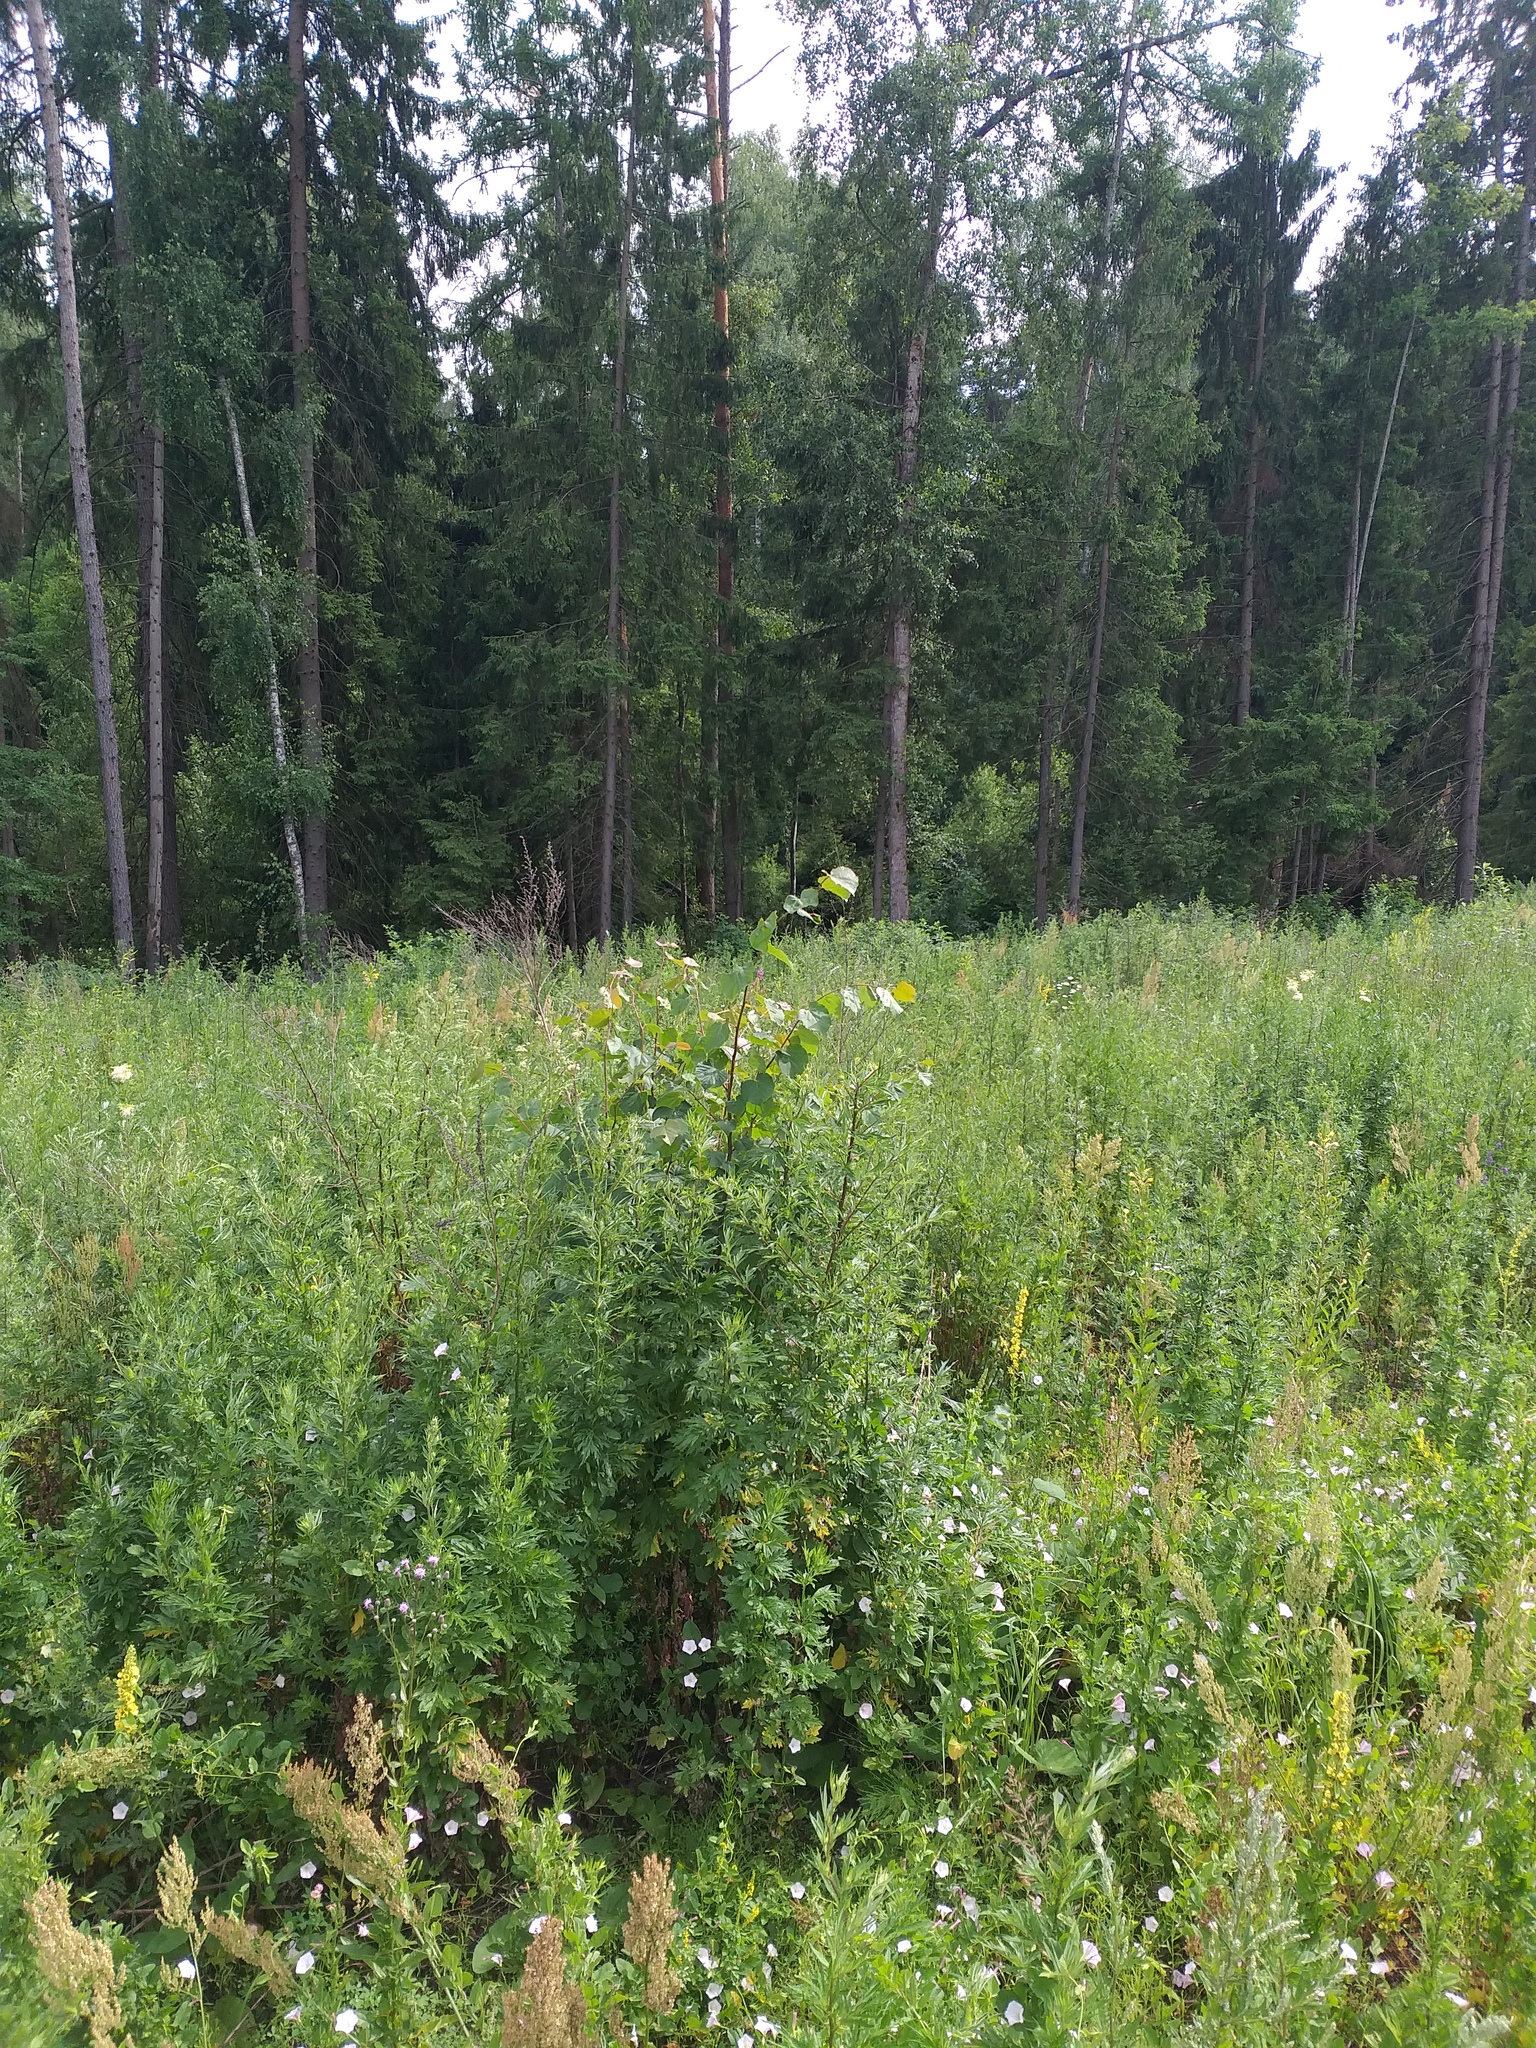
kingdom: Plantae
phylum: Tracheophyta
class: Magnoliopsida
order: Malvales
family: Malvaceae
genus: Tilia
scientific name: Tilia cordata
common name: Small-leaved lime
